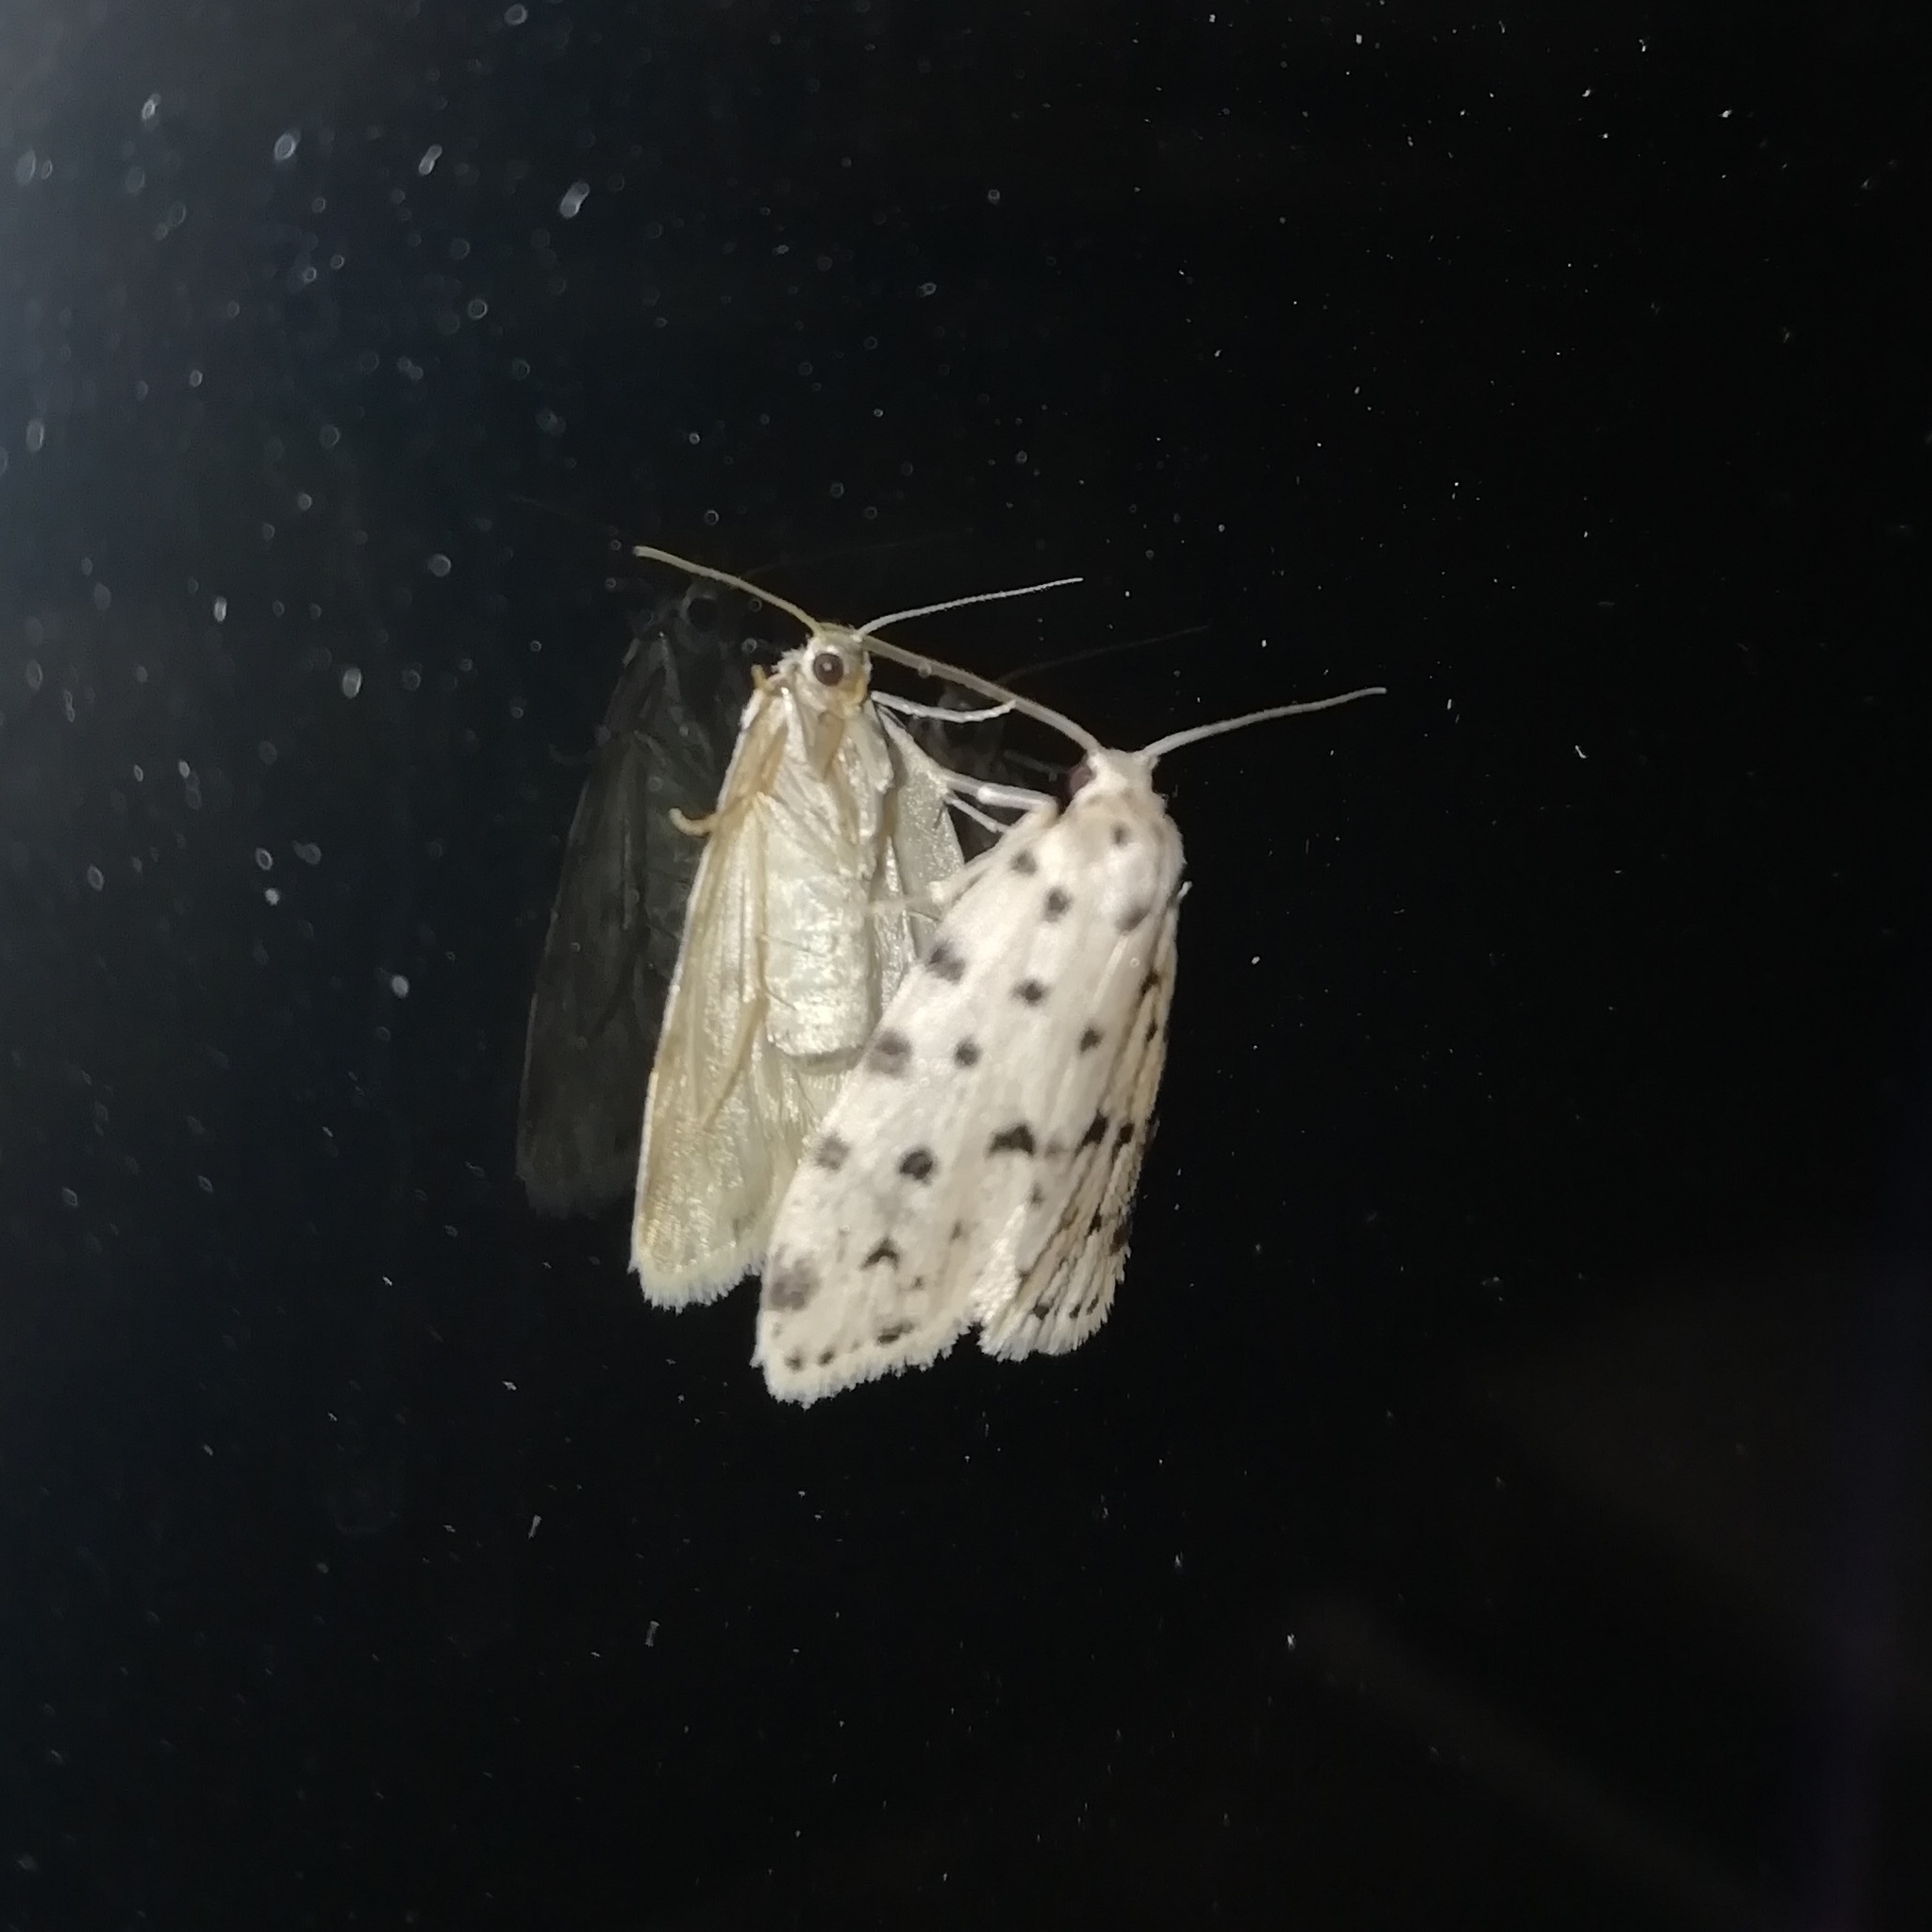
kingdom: Animalia
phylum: Arthropoda
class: Insecta
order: Lepidoptera
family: Erebidae
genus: Siccia
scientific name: Siccia caffra
